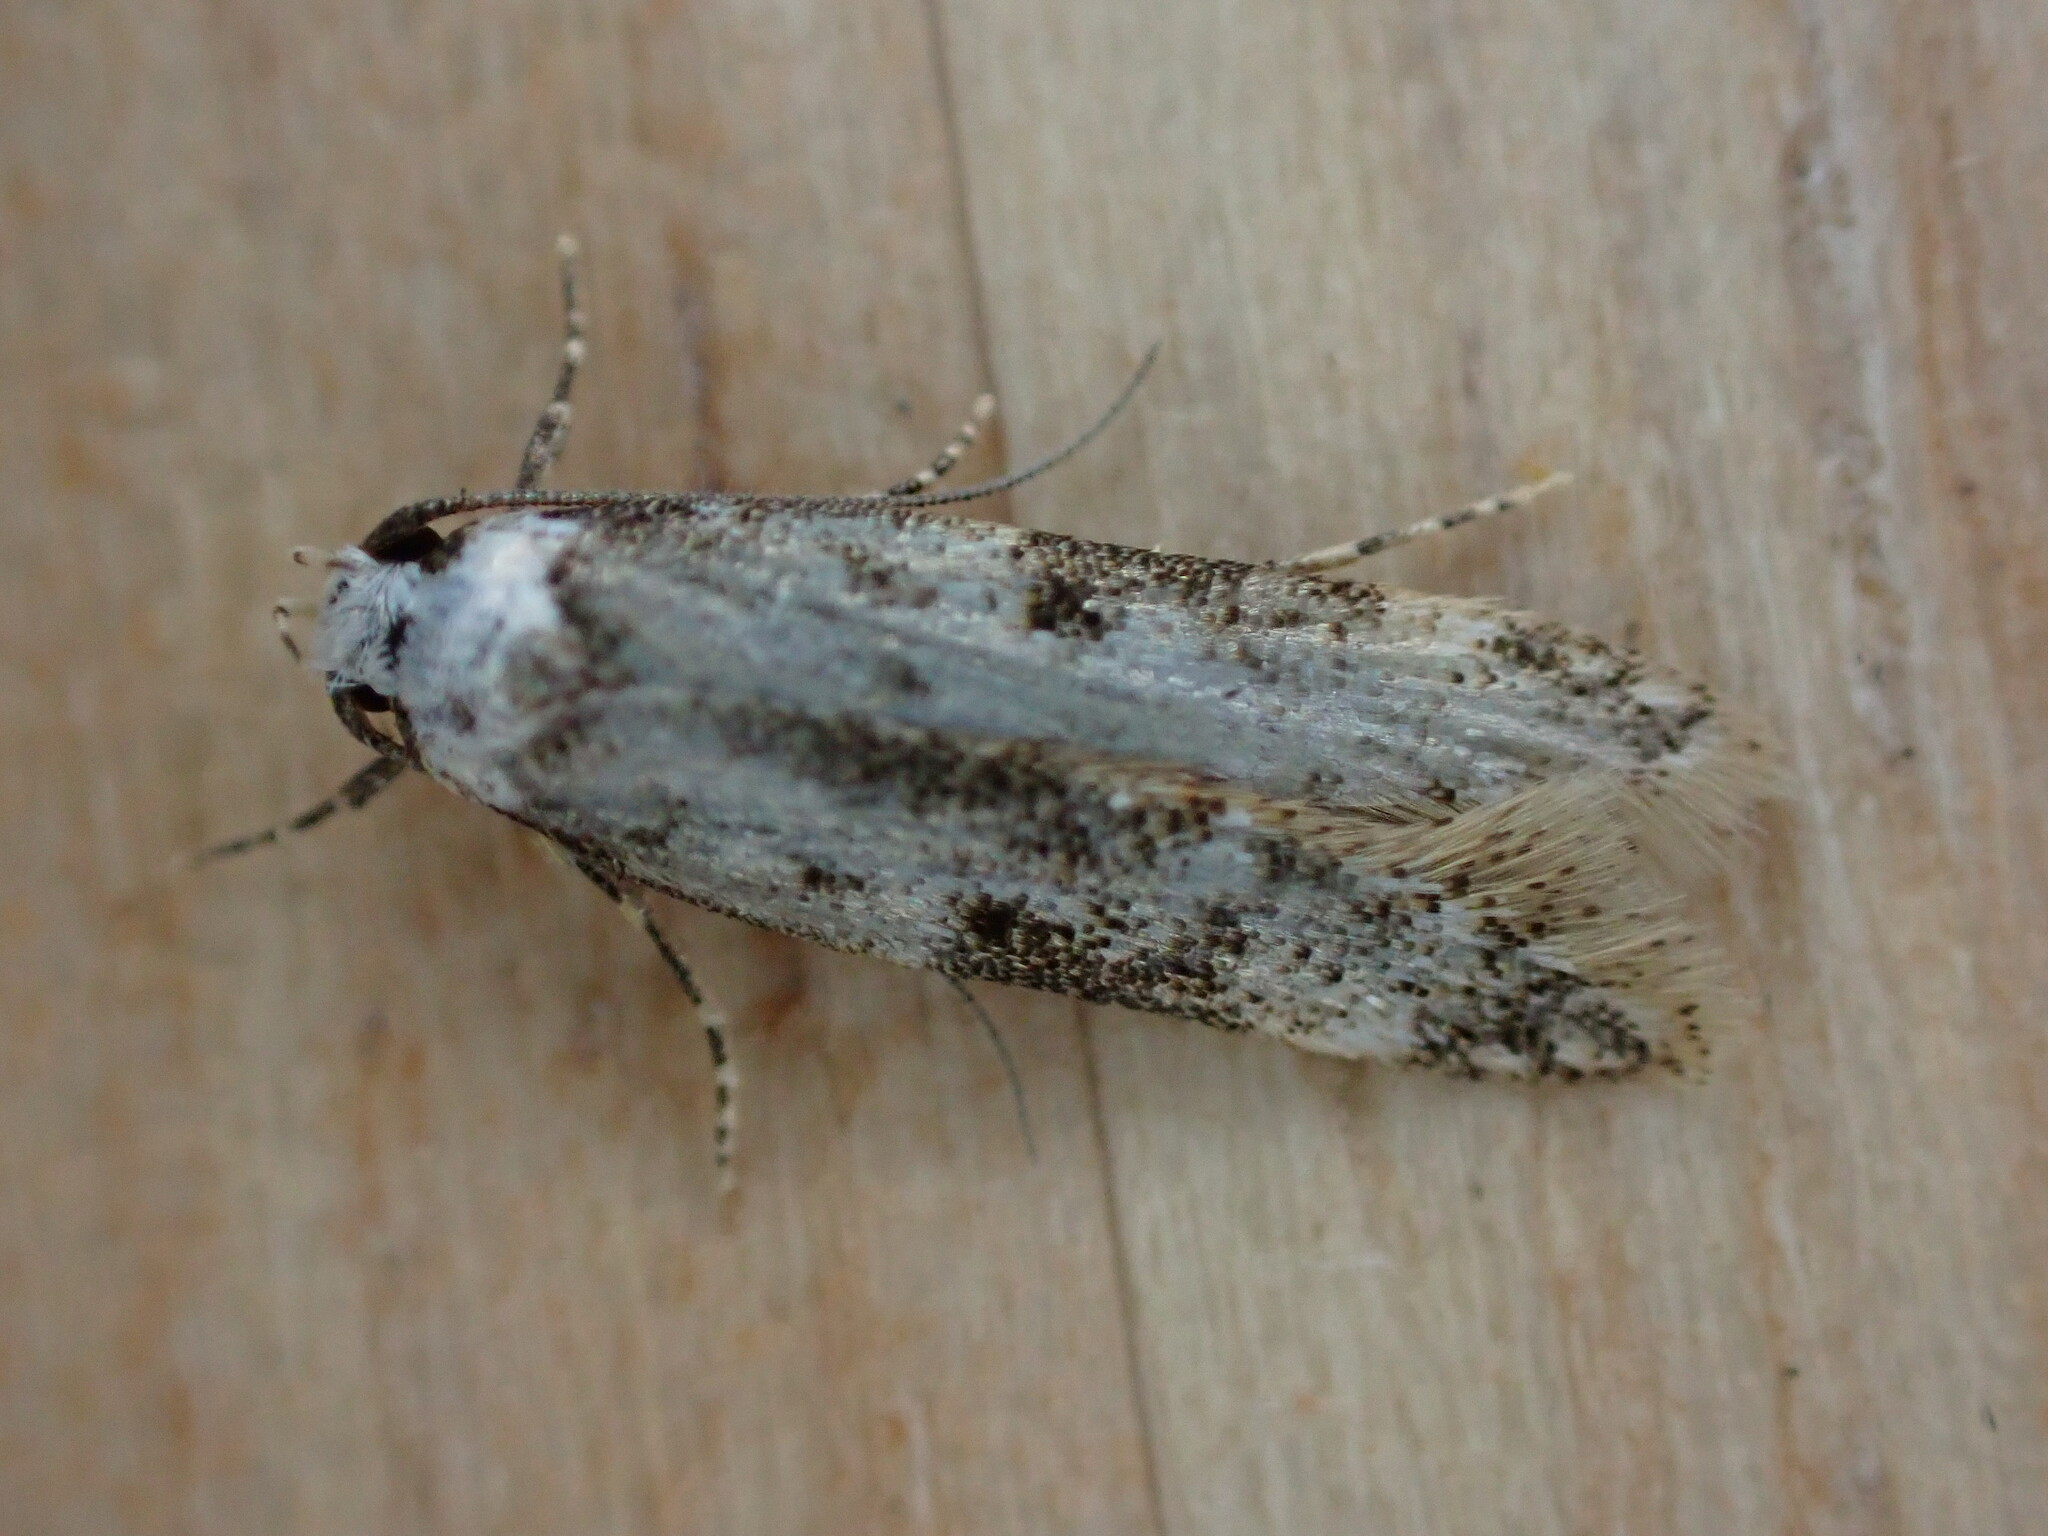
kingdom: Animalia
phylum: Arthropoda
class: Insecta
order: Lepidoptera
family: Oecophoridae
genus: Endrosis
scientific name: Endrosis sarcitrella
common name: White-shouldered house moth
